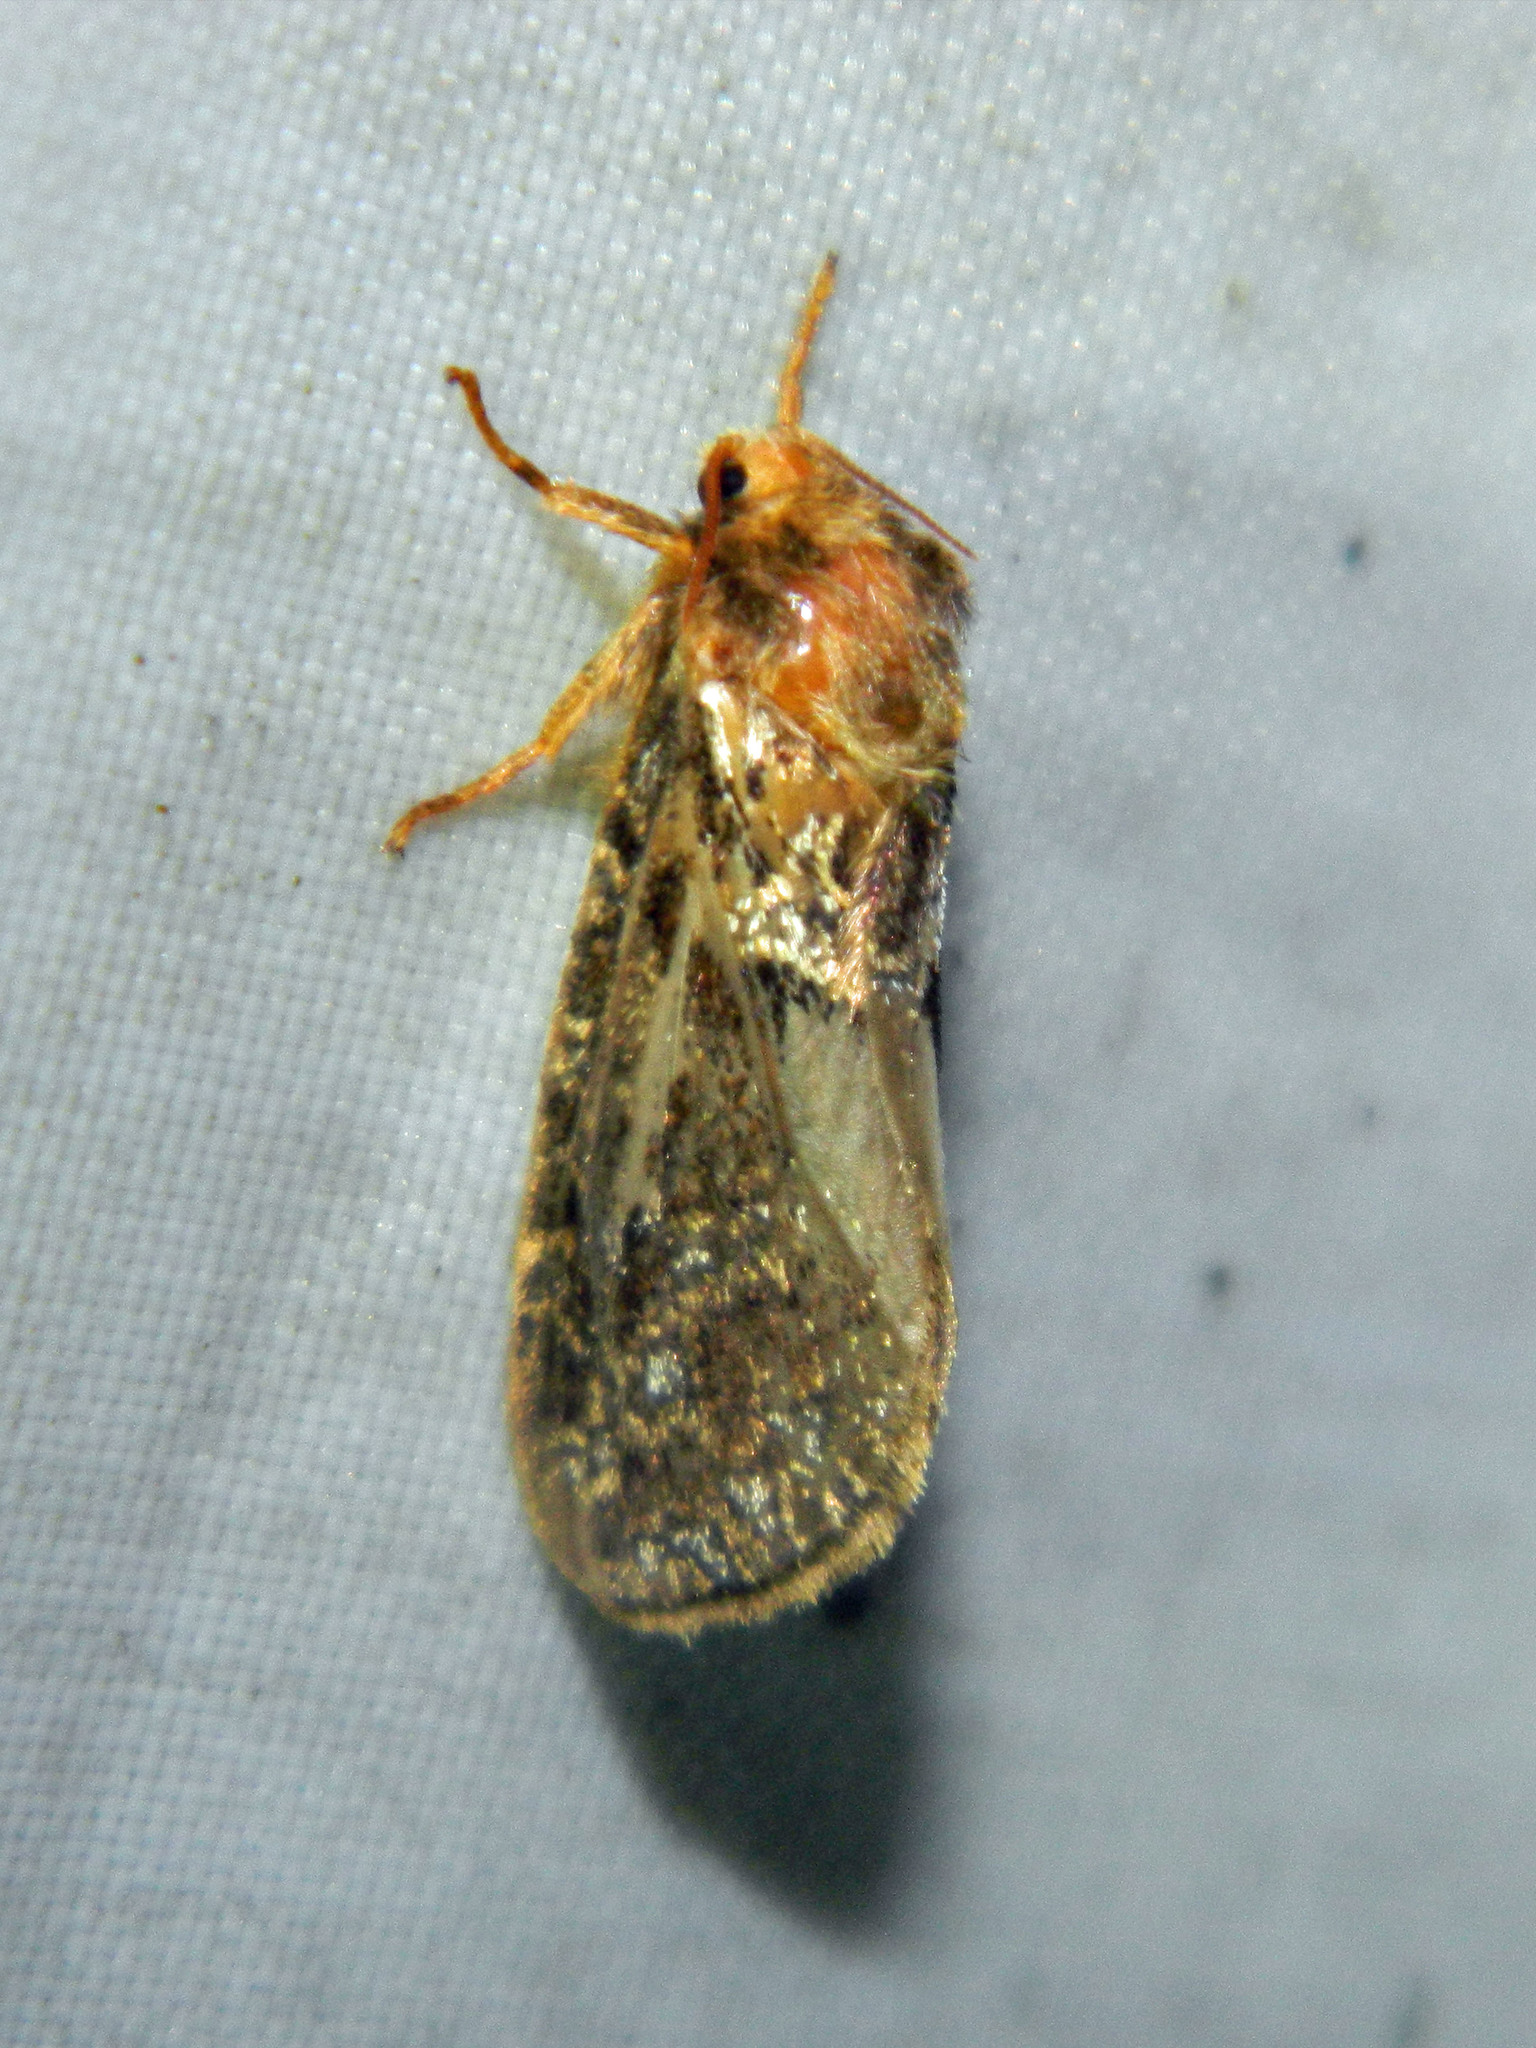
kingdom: Animalia
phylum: Arthropoda
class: Insecta
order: Lepidoptera
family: Hepialidae
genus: Korscheltellus
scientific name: Korscheltellus gracilis
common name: Conifer swift moth
